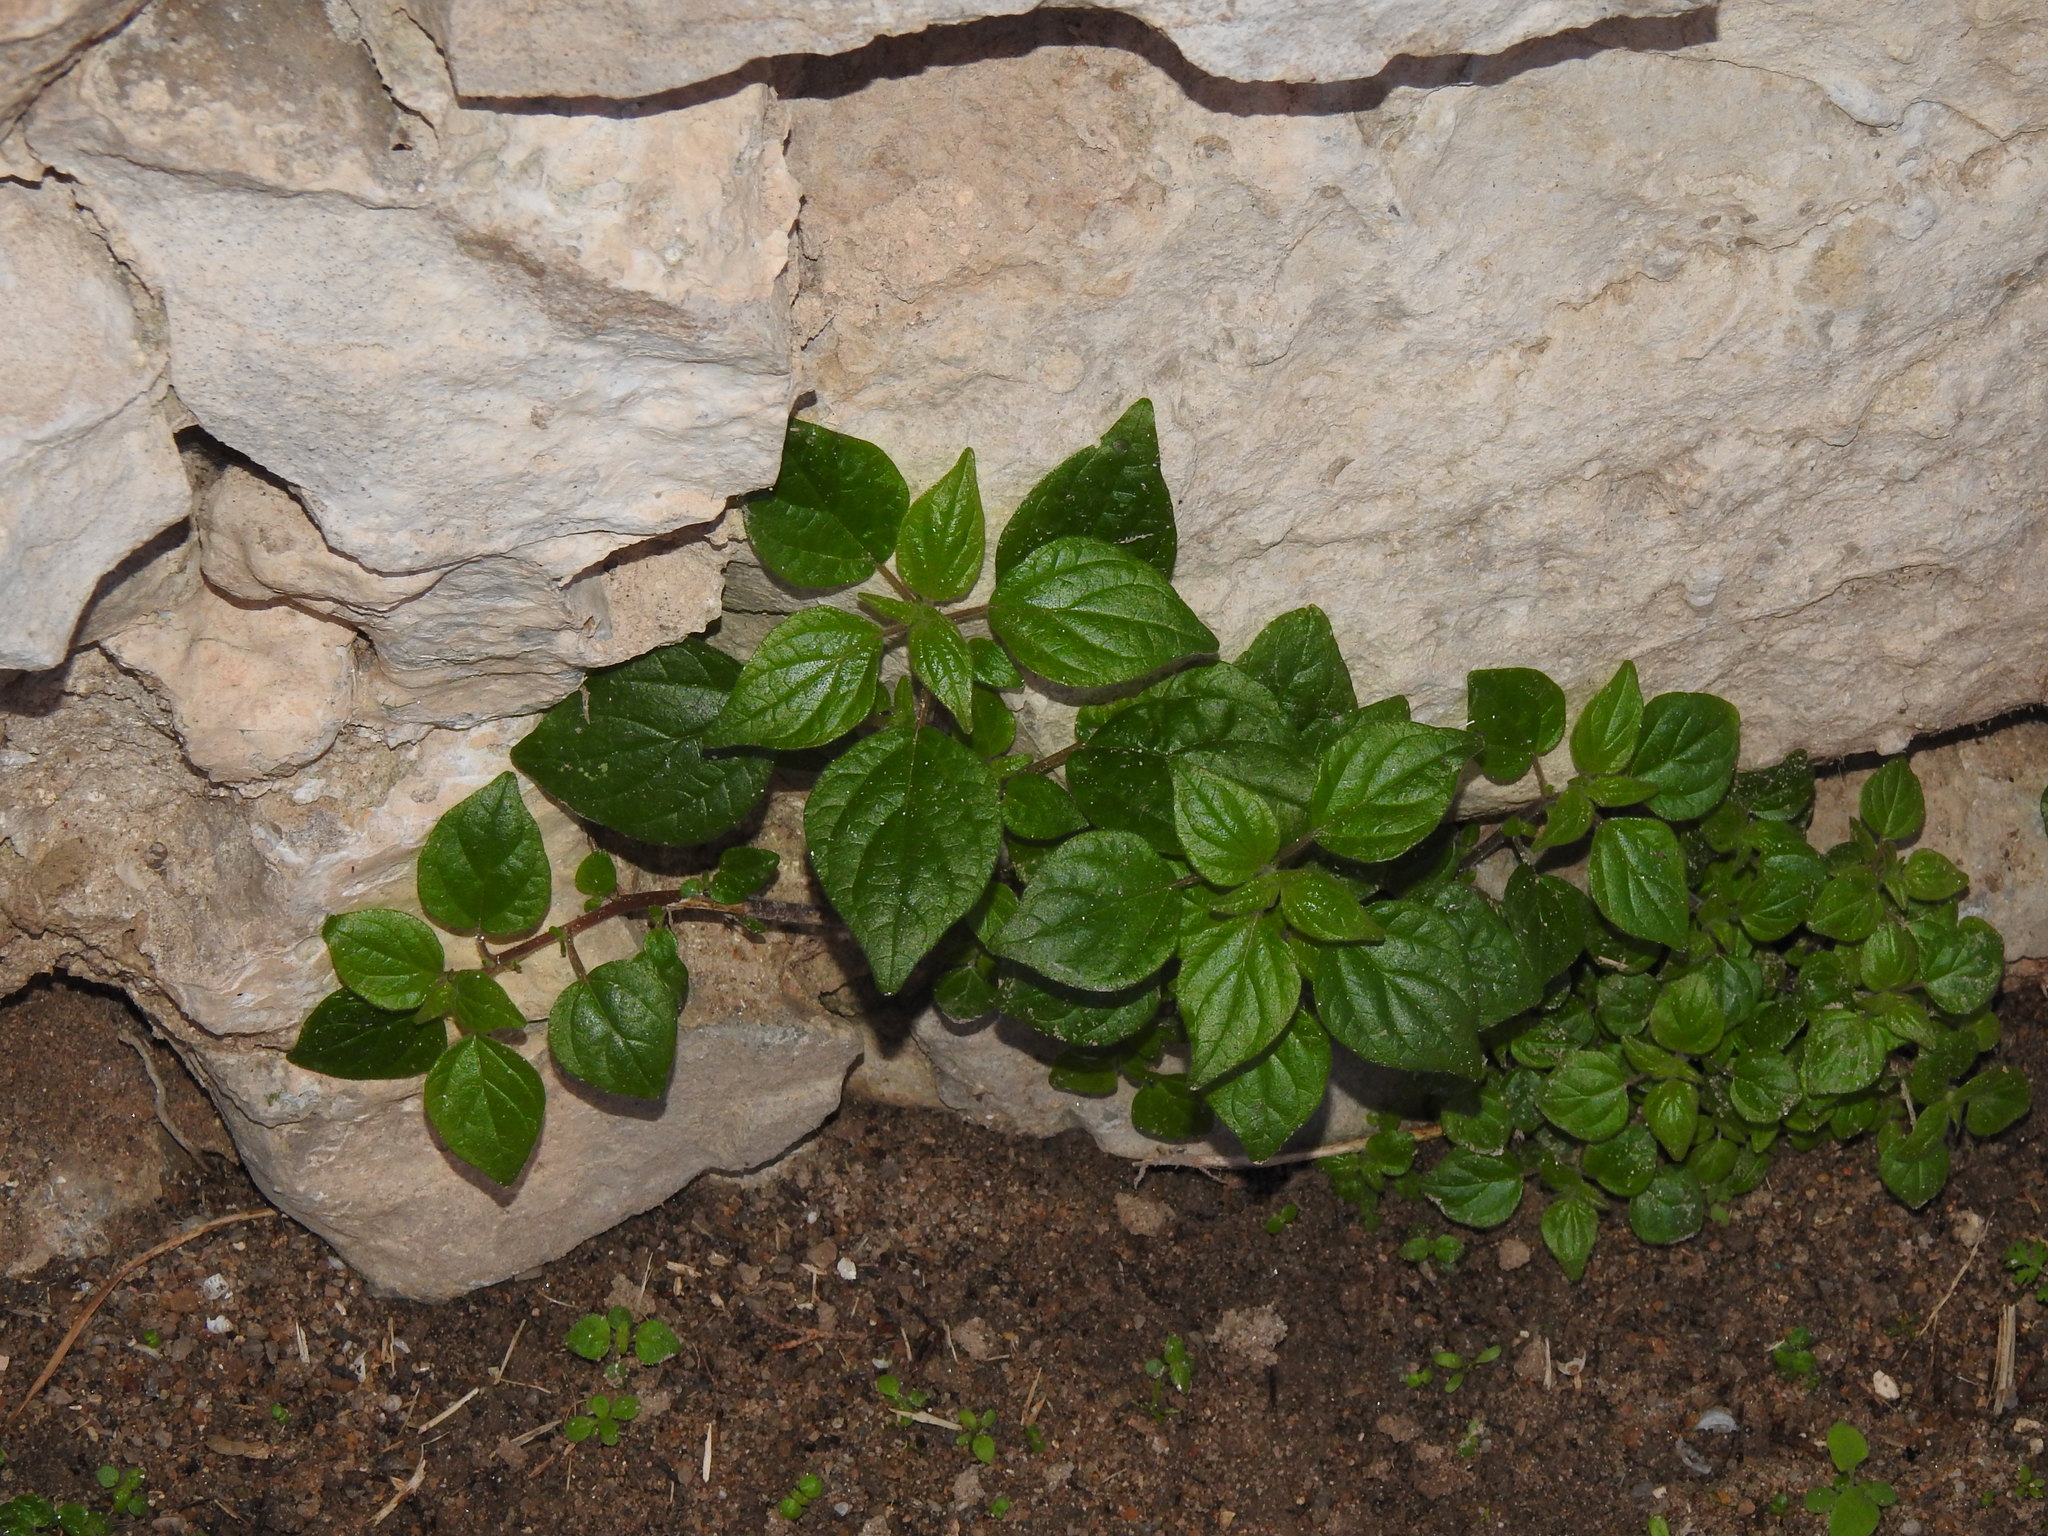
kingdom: Plantae
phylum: Tracheophyta
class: Magnoliopsida
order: Rosales
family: Urticaceae
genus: Parietaria
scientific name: Parietaria judaica
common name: Pellitory-of-the-wall
